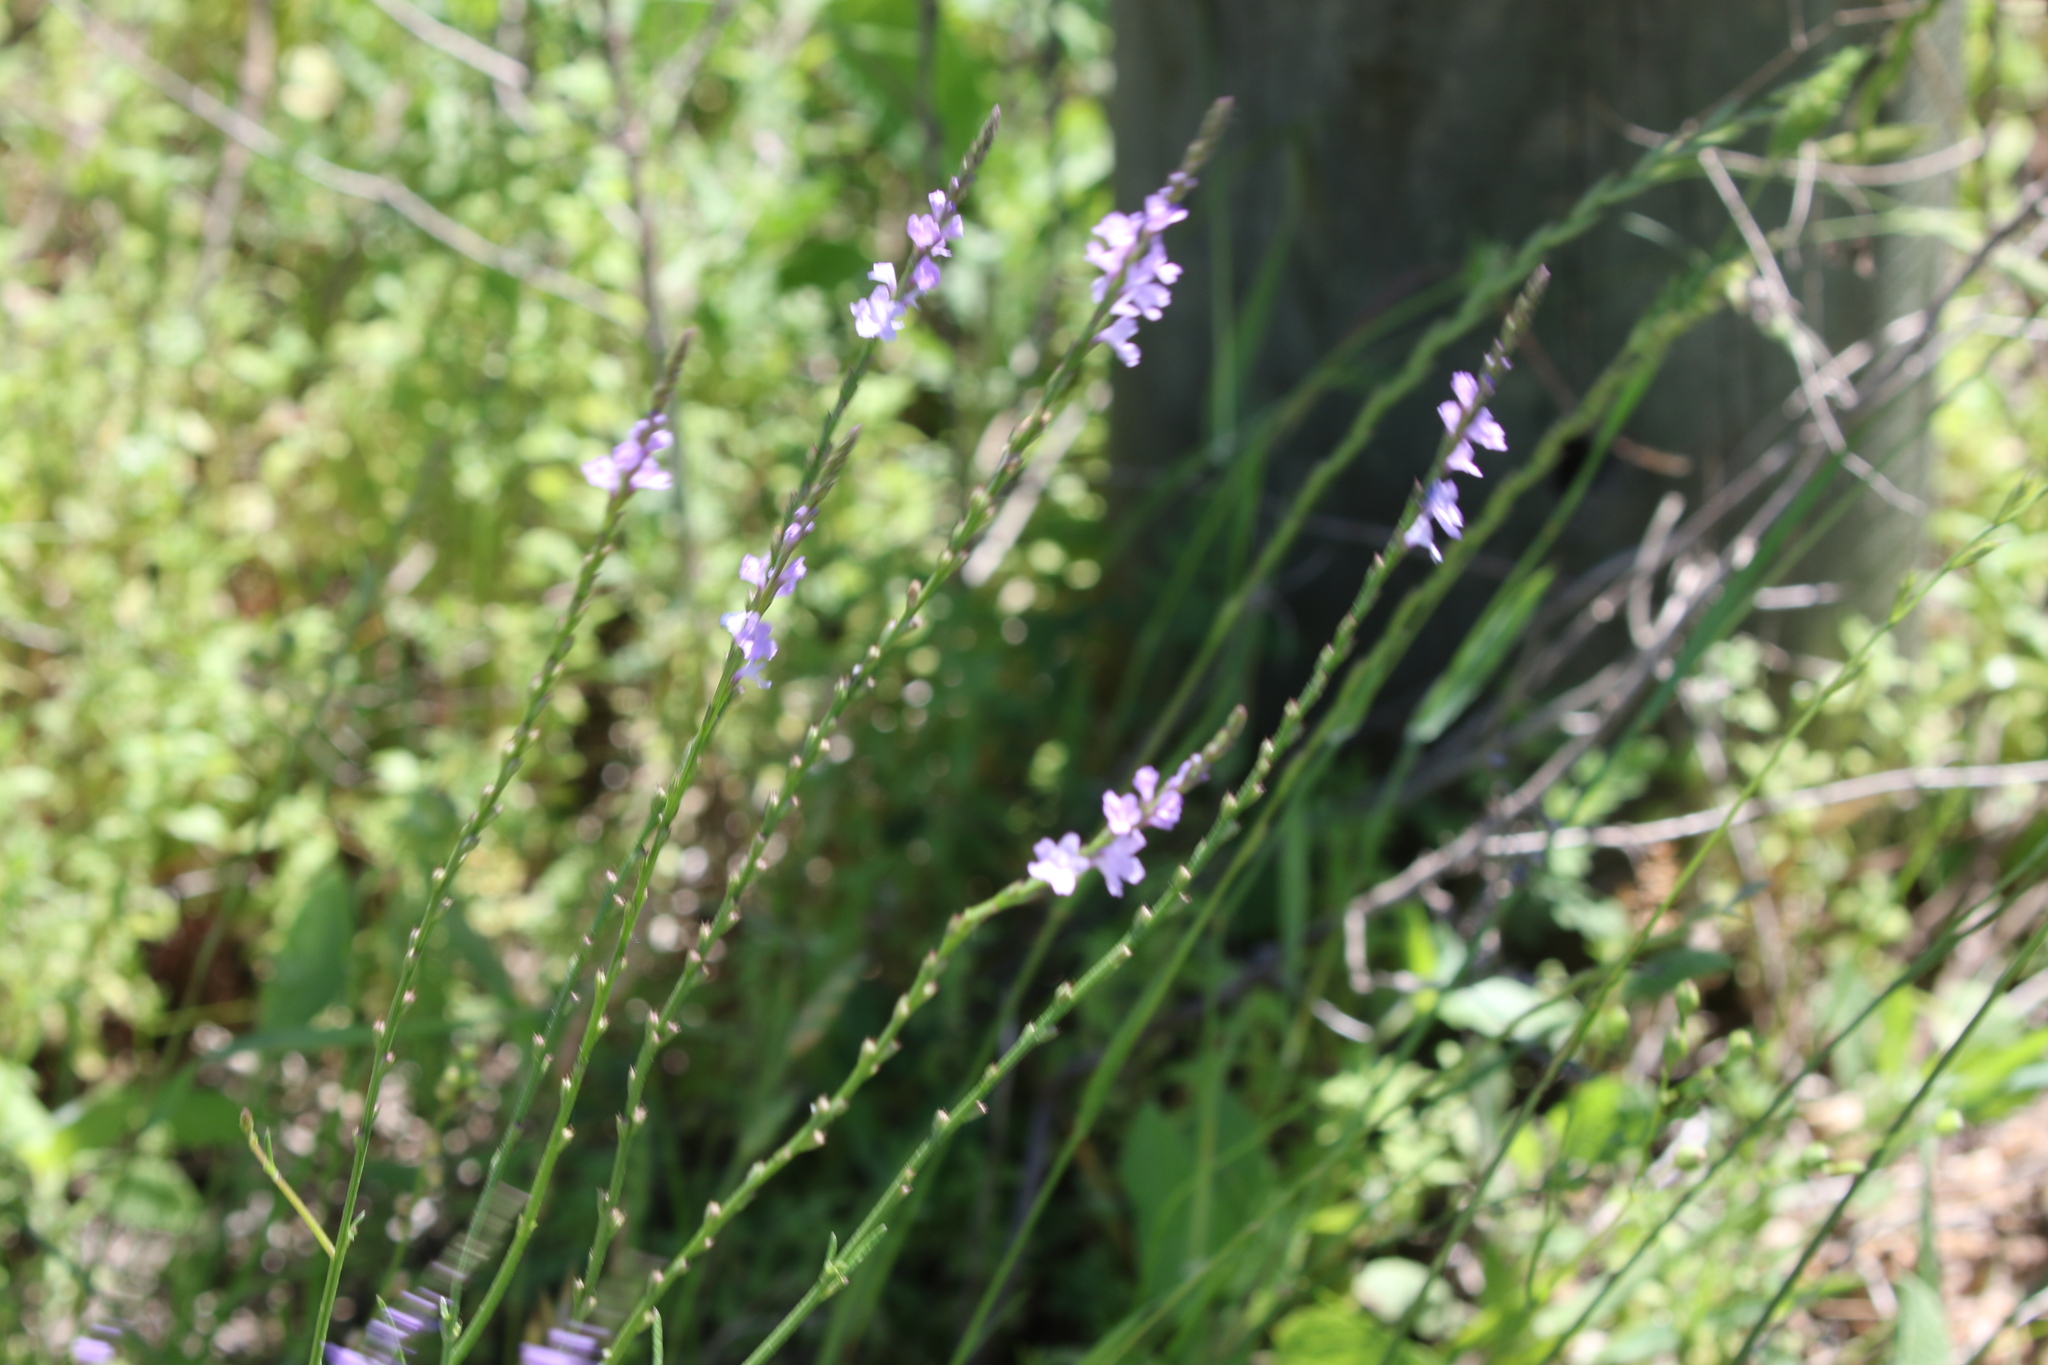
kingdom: Plantae
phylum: Tracheophyta
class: Magnoliopsida
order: Lamiales
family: Verbenaceae
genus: Verbena
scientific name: Verbena halei
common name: Texas vervain
